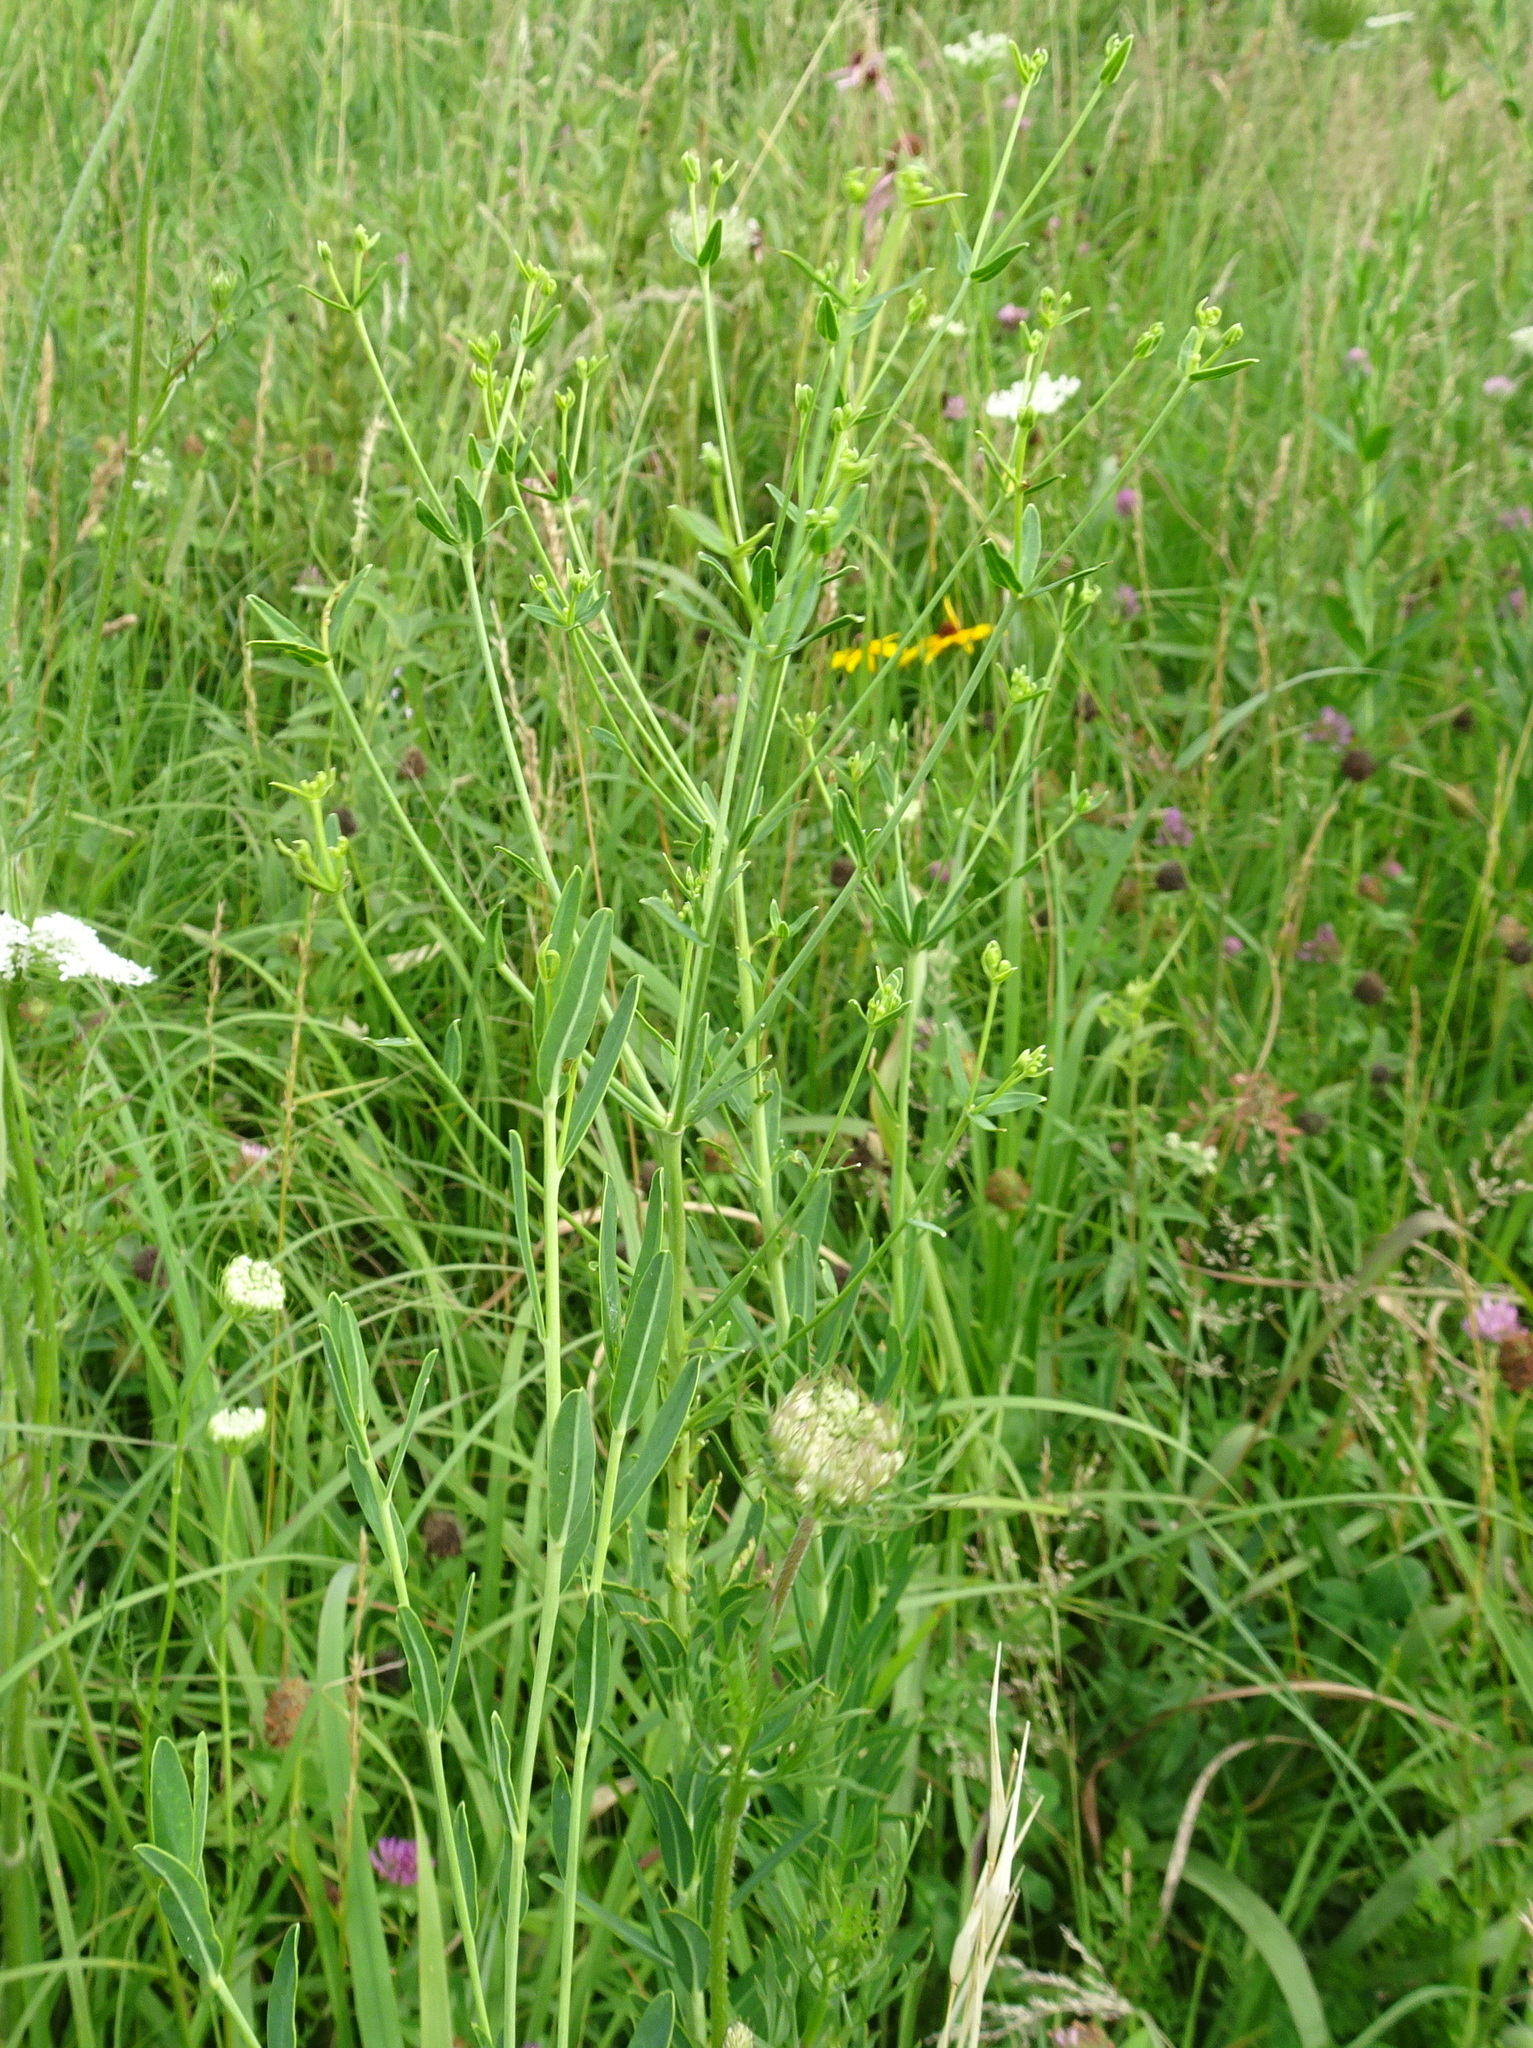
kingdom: Plantae
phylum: Tracheophyta
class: Magnoliopsida
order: Malpighiales
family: Euphorbiaceae
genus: Euphorbia
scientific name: Euphorbia corollata
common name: Flowering spurge
